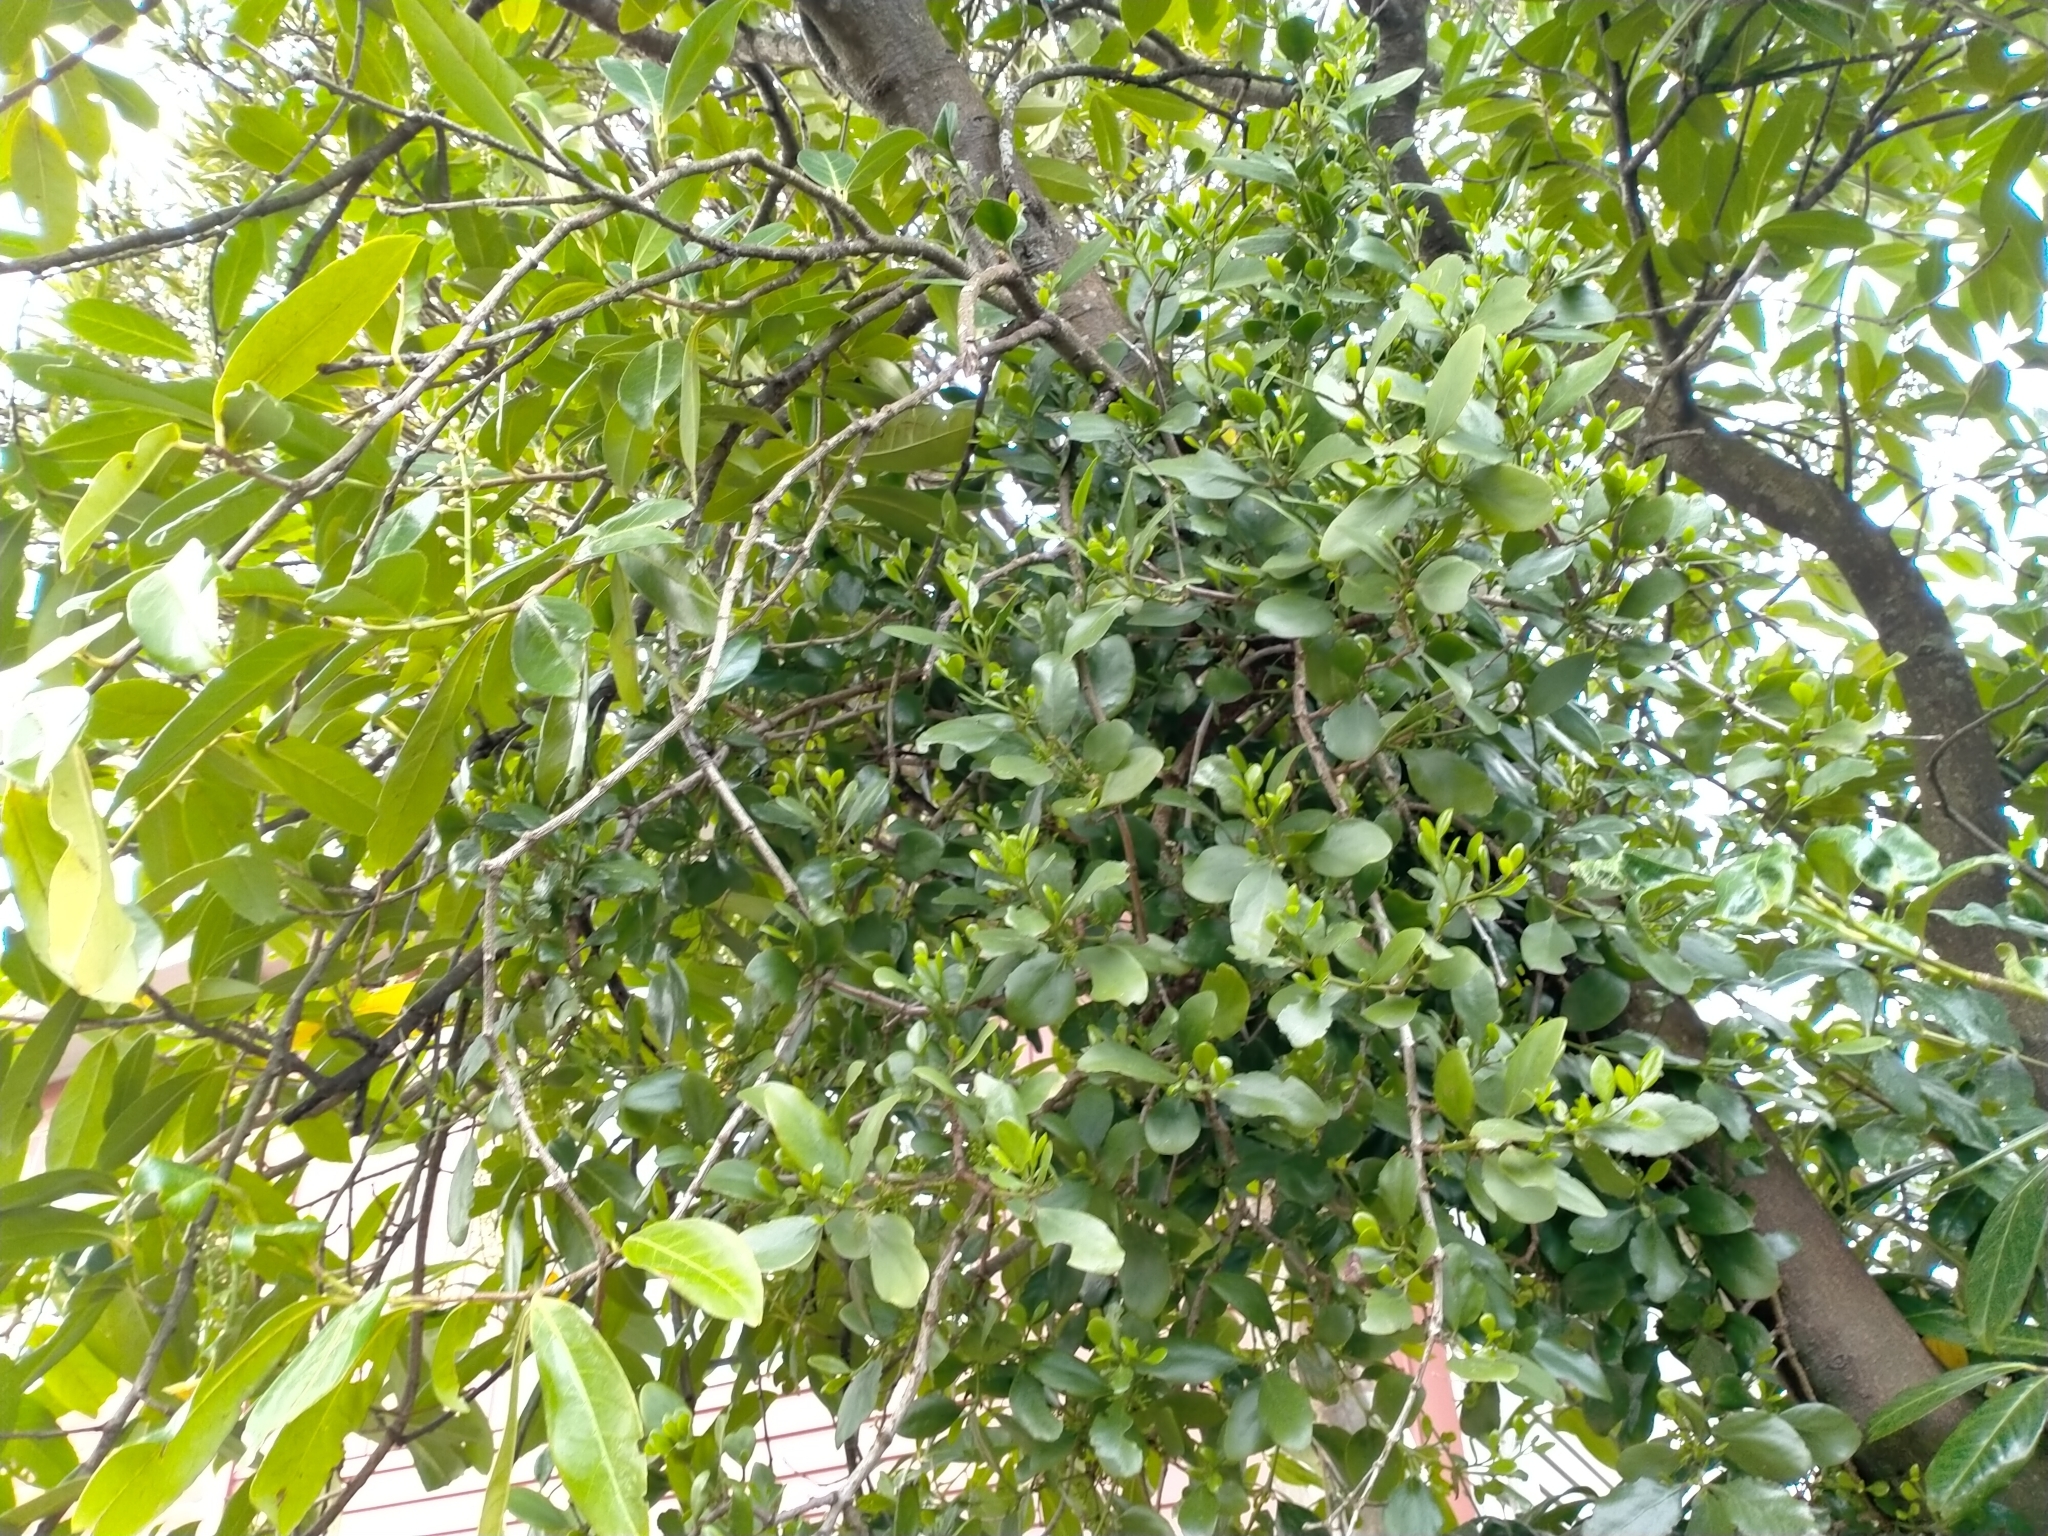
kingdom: Plantae
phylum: Tracheophyta
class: Magnoliopsida
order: Santalales
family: Loranthaceae
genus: Ileostylus
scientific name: Ileostylus micranthus
